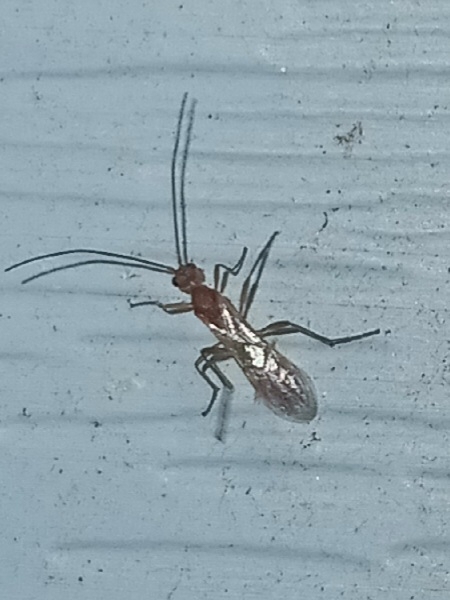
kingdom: Animalia
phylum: Arthropoda
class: Insecta
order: Hymenoptera
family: Formicidae
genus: Pachycondyla
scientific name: Pachycondyla chinensis
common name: Asian needle ant
